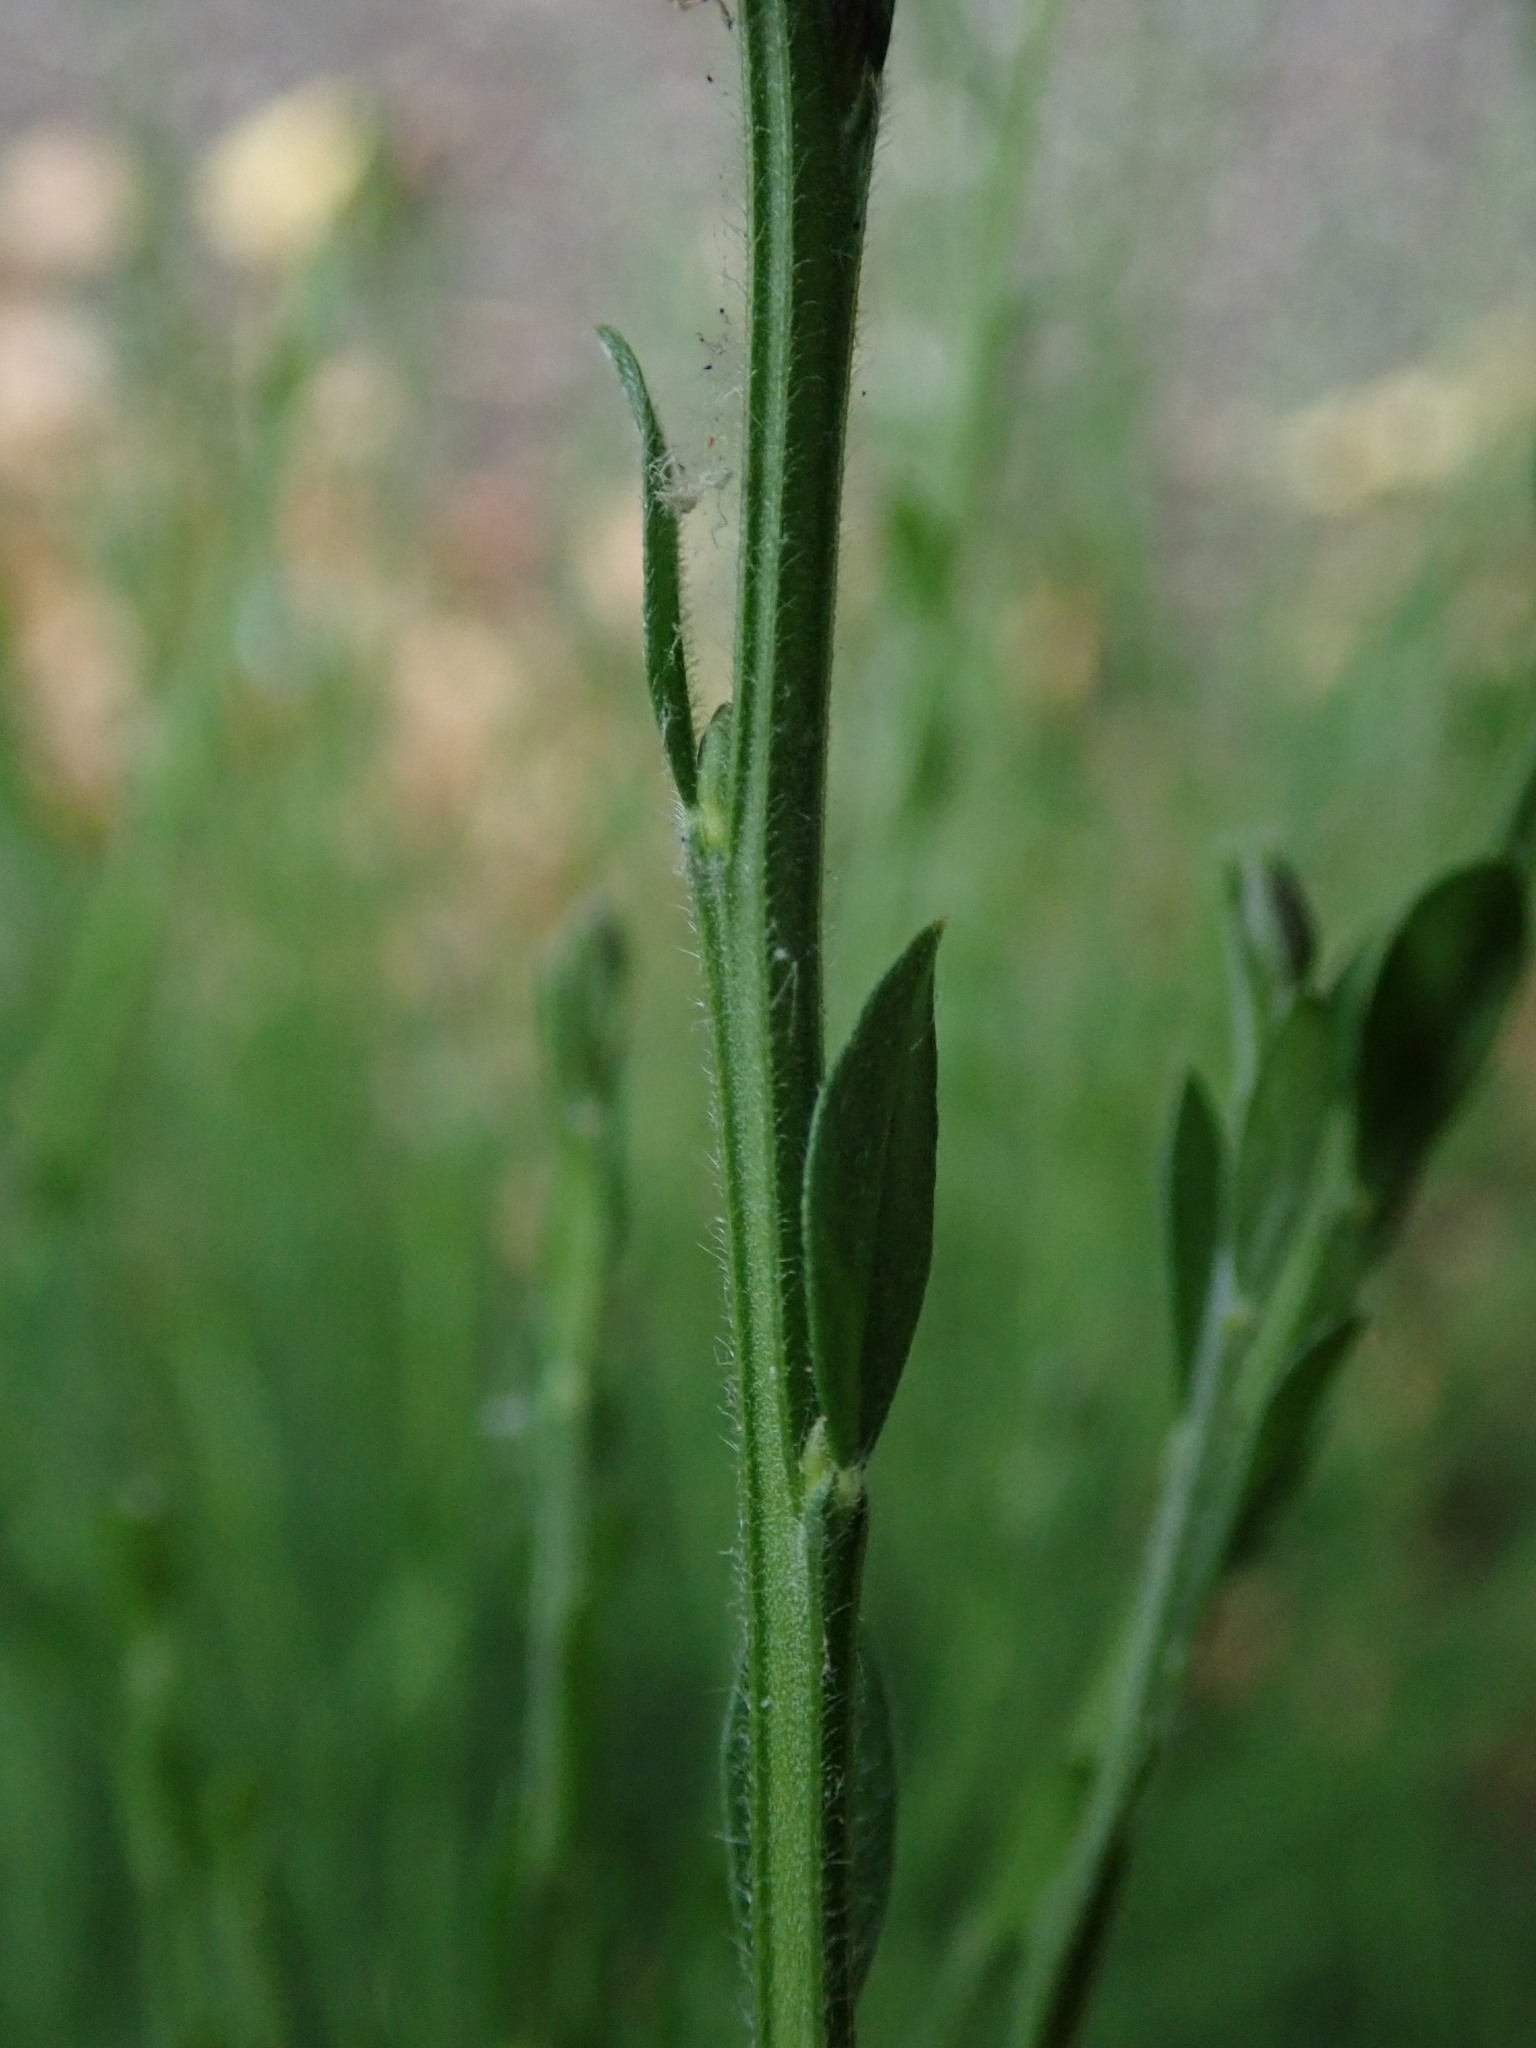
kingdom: Plantae
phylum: Tracheophyta
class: Magnoliopsida
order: Fabales
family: Fabaceae
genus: Cytisus
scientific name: Cytisus scoparius
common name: Scotch broom
